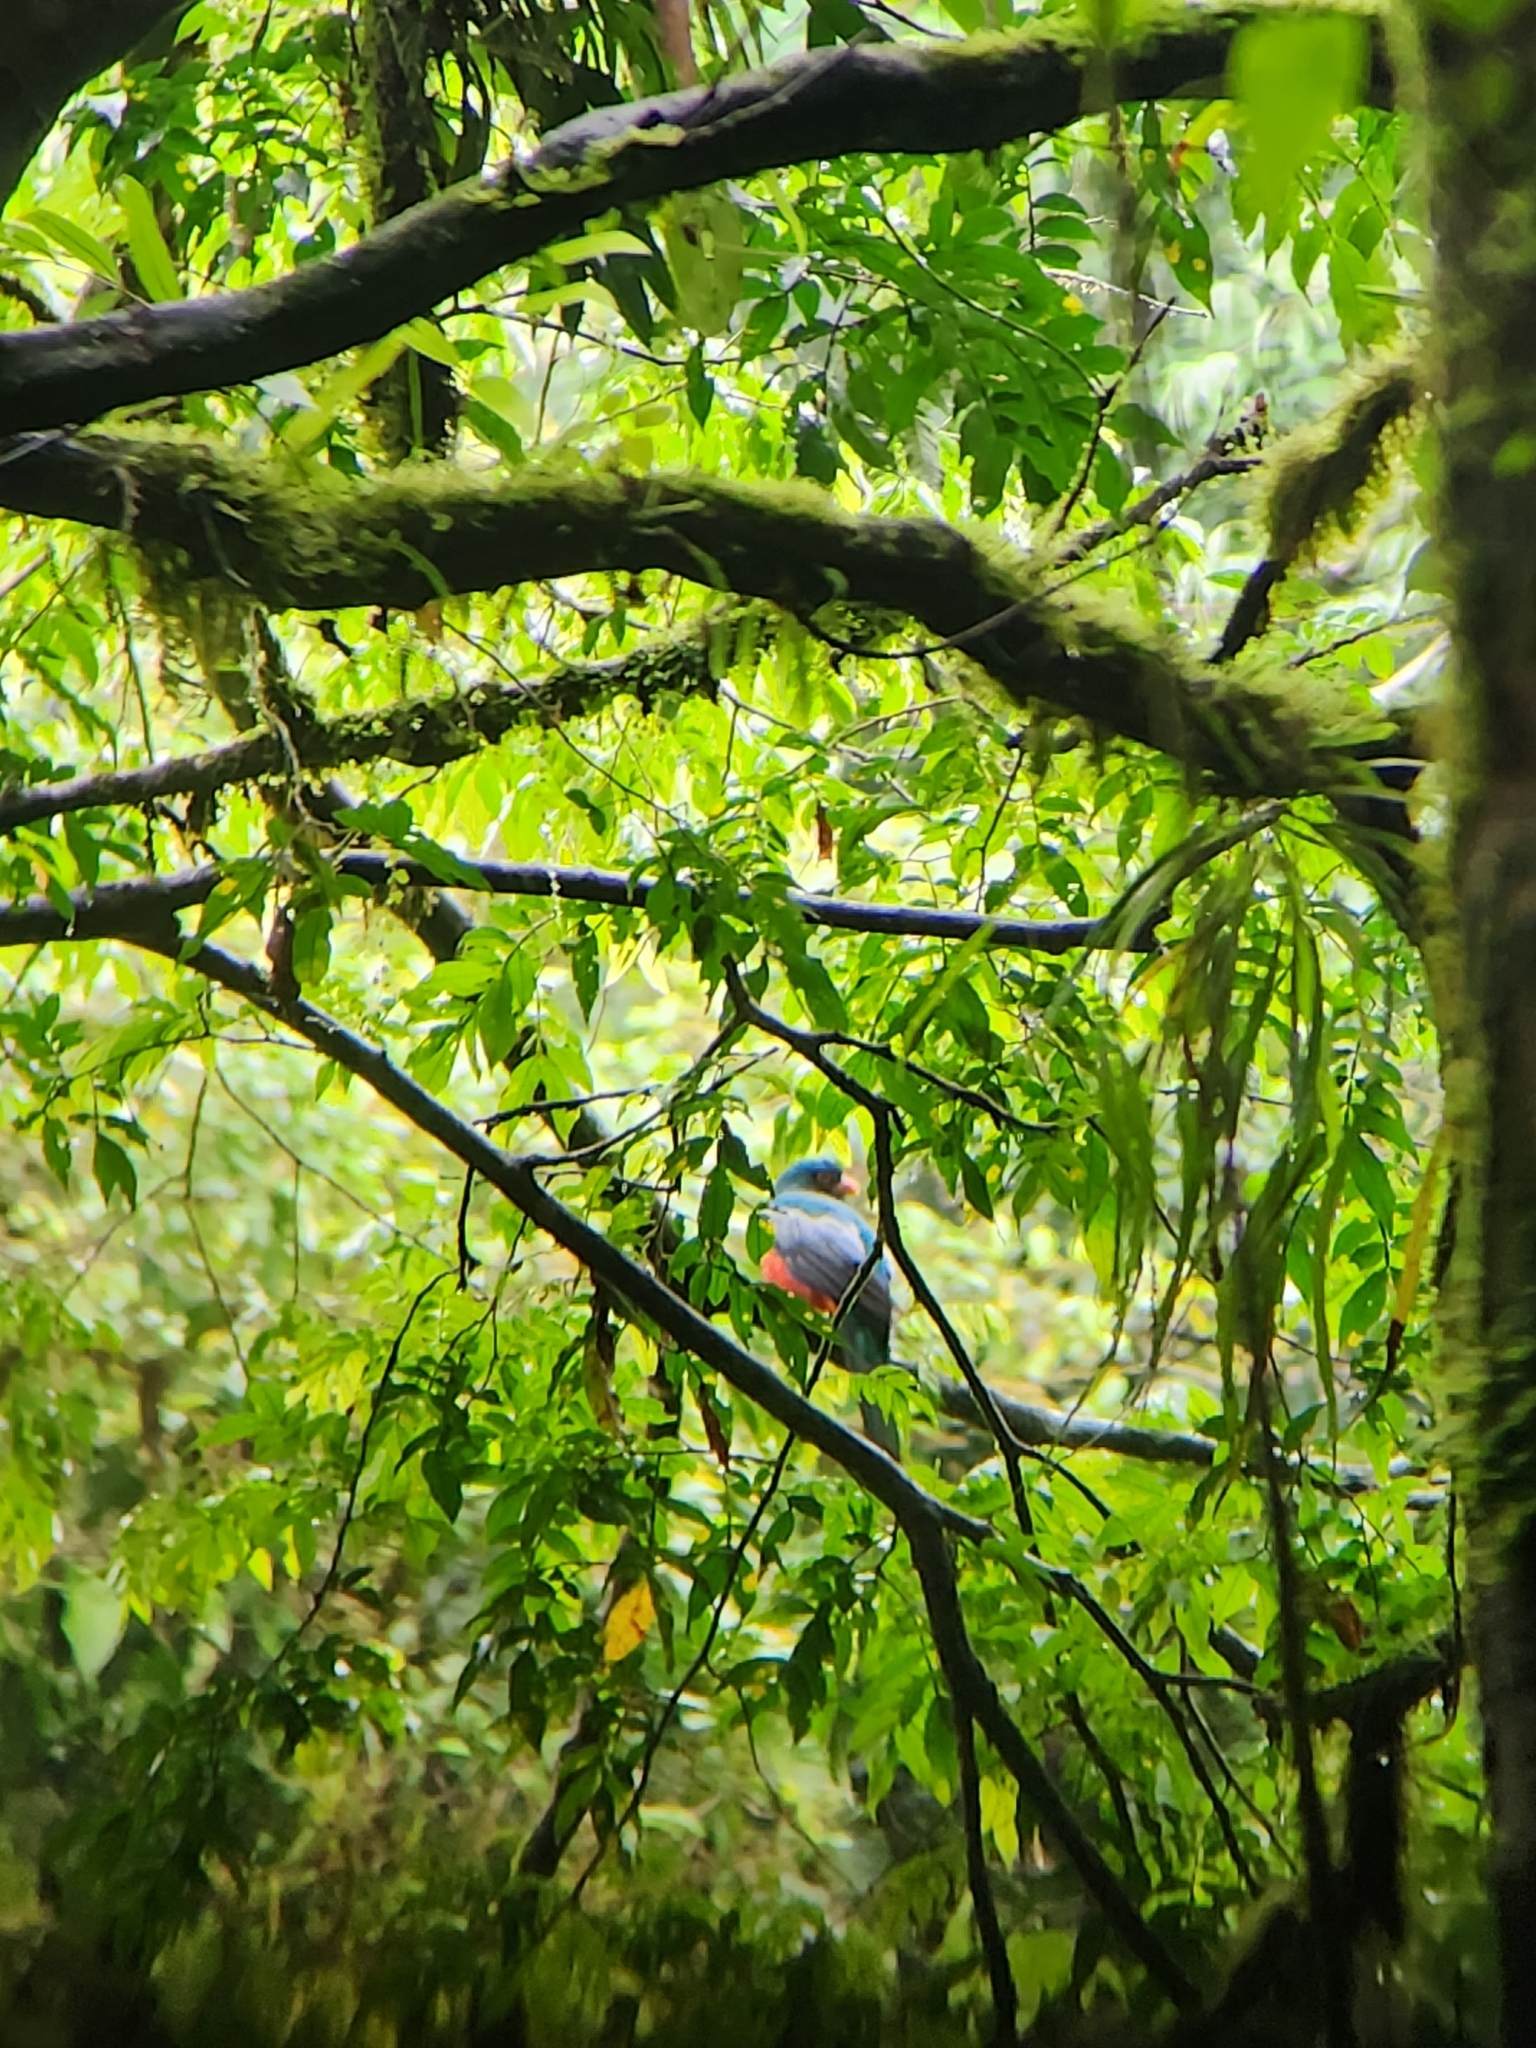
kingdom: Animalia
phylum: Chordata
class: Aves
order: Trogoniformes
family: Trogonidae
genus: Trogon
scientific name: Trogon massena
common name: Slaty-tailed trogon
